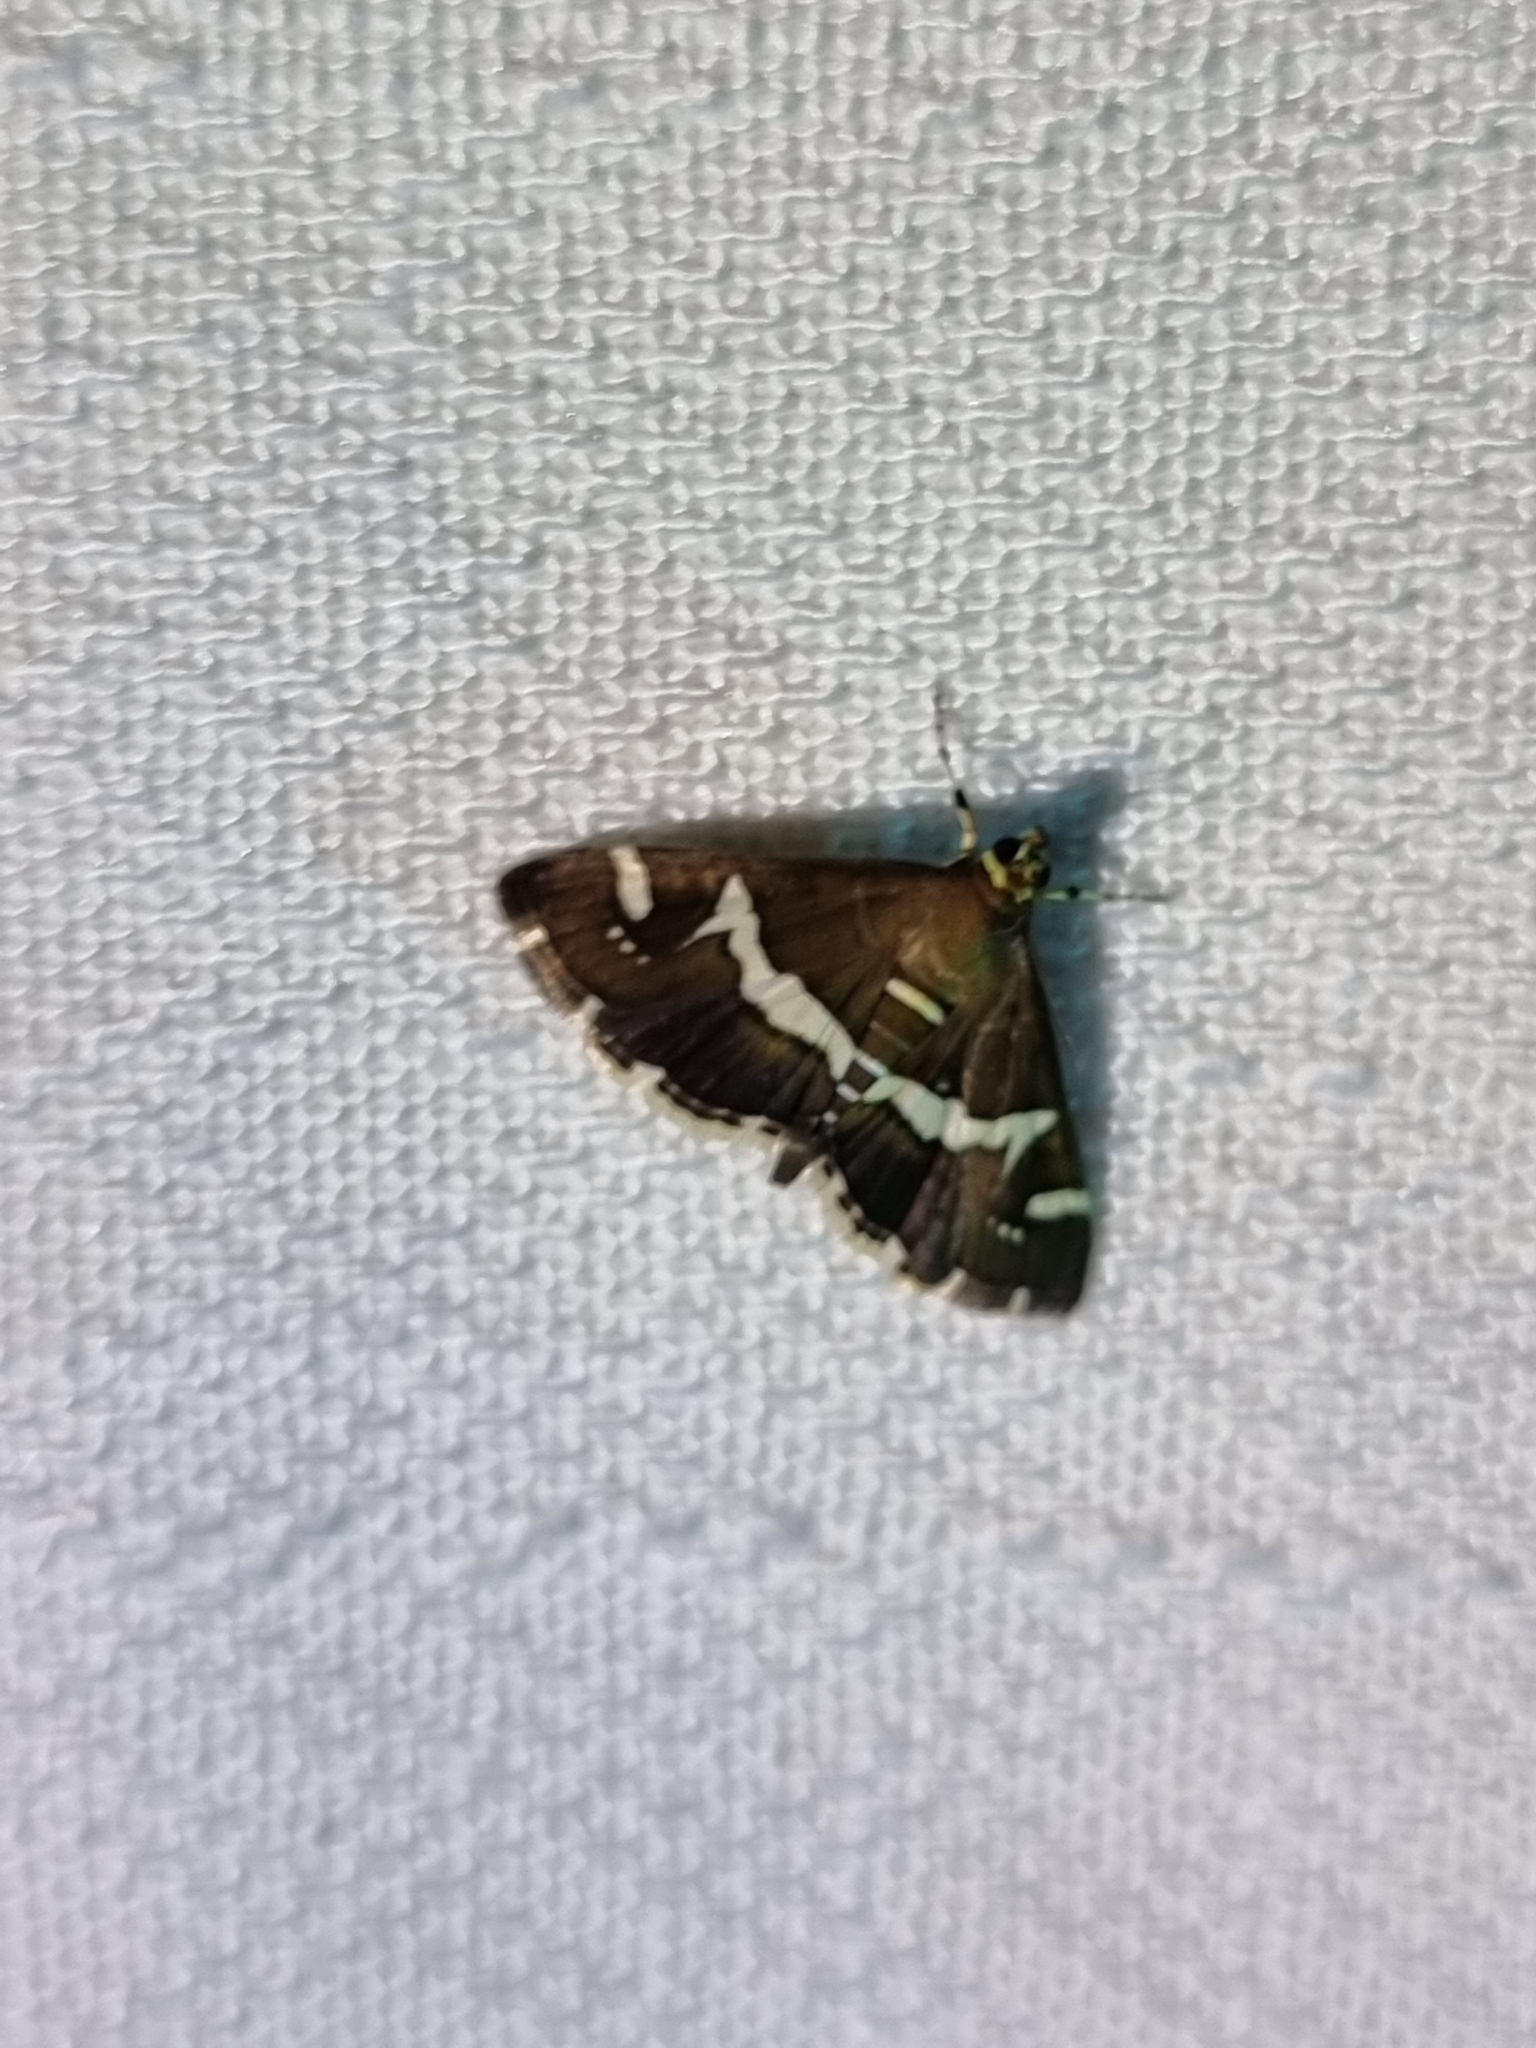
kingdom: Animalia
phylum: Arthropoda
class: Insecta
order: Lepidoptera
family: Crambidae
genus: Spoladea
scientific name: Spoladea recurvalis
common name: Beet webworm moth
